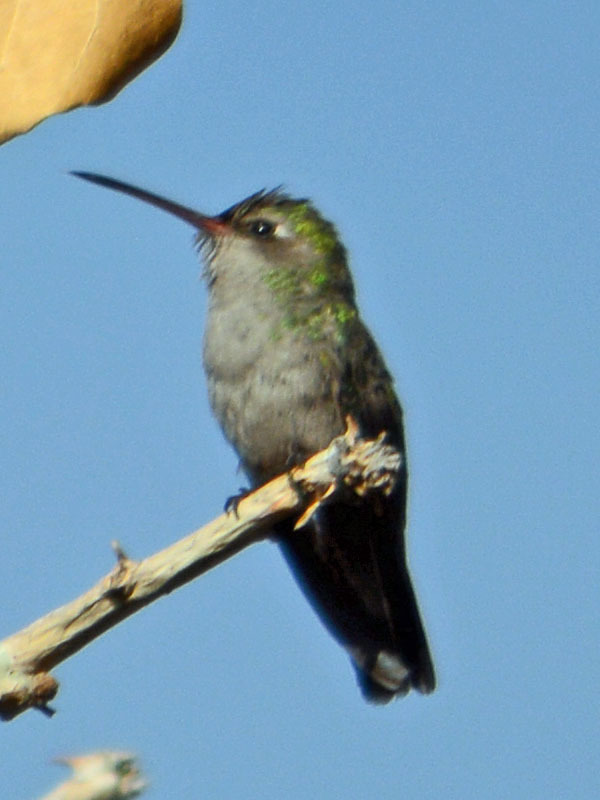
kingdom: Animalia
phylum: Chordata
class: Aves
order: Apodiformes
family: Trochilidae
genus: Cynanthus
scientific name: Cynanthus latirostris
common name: Broad-billed hummingbird
